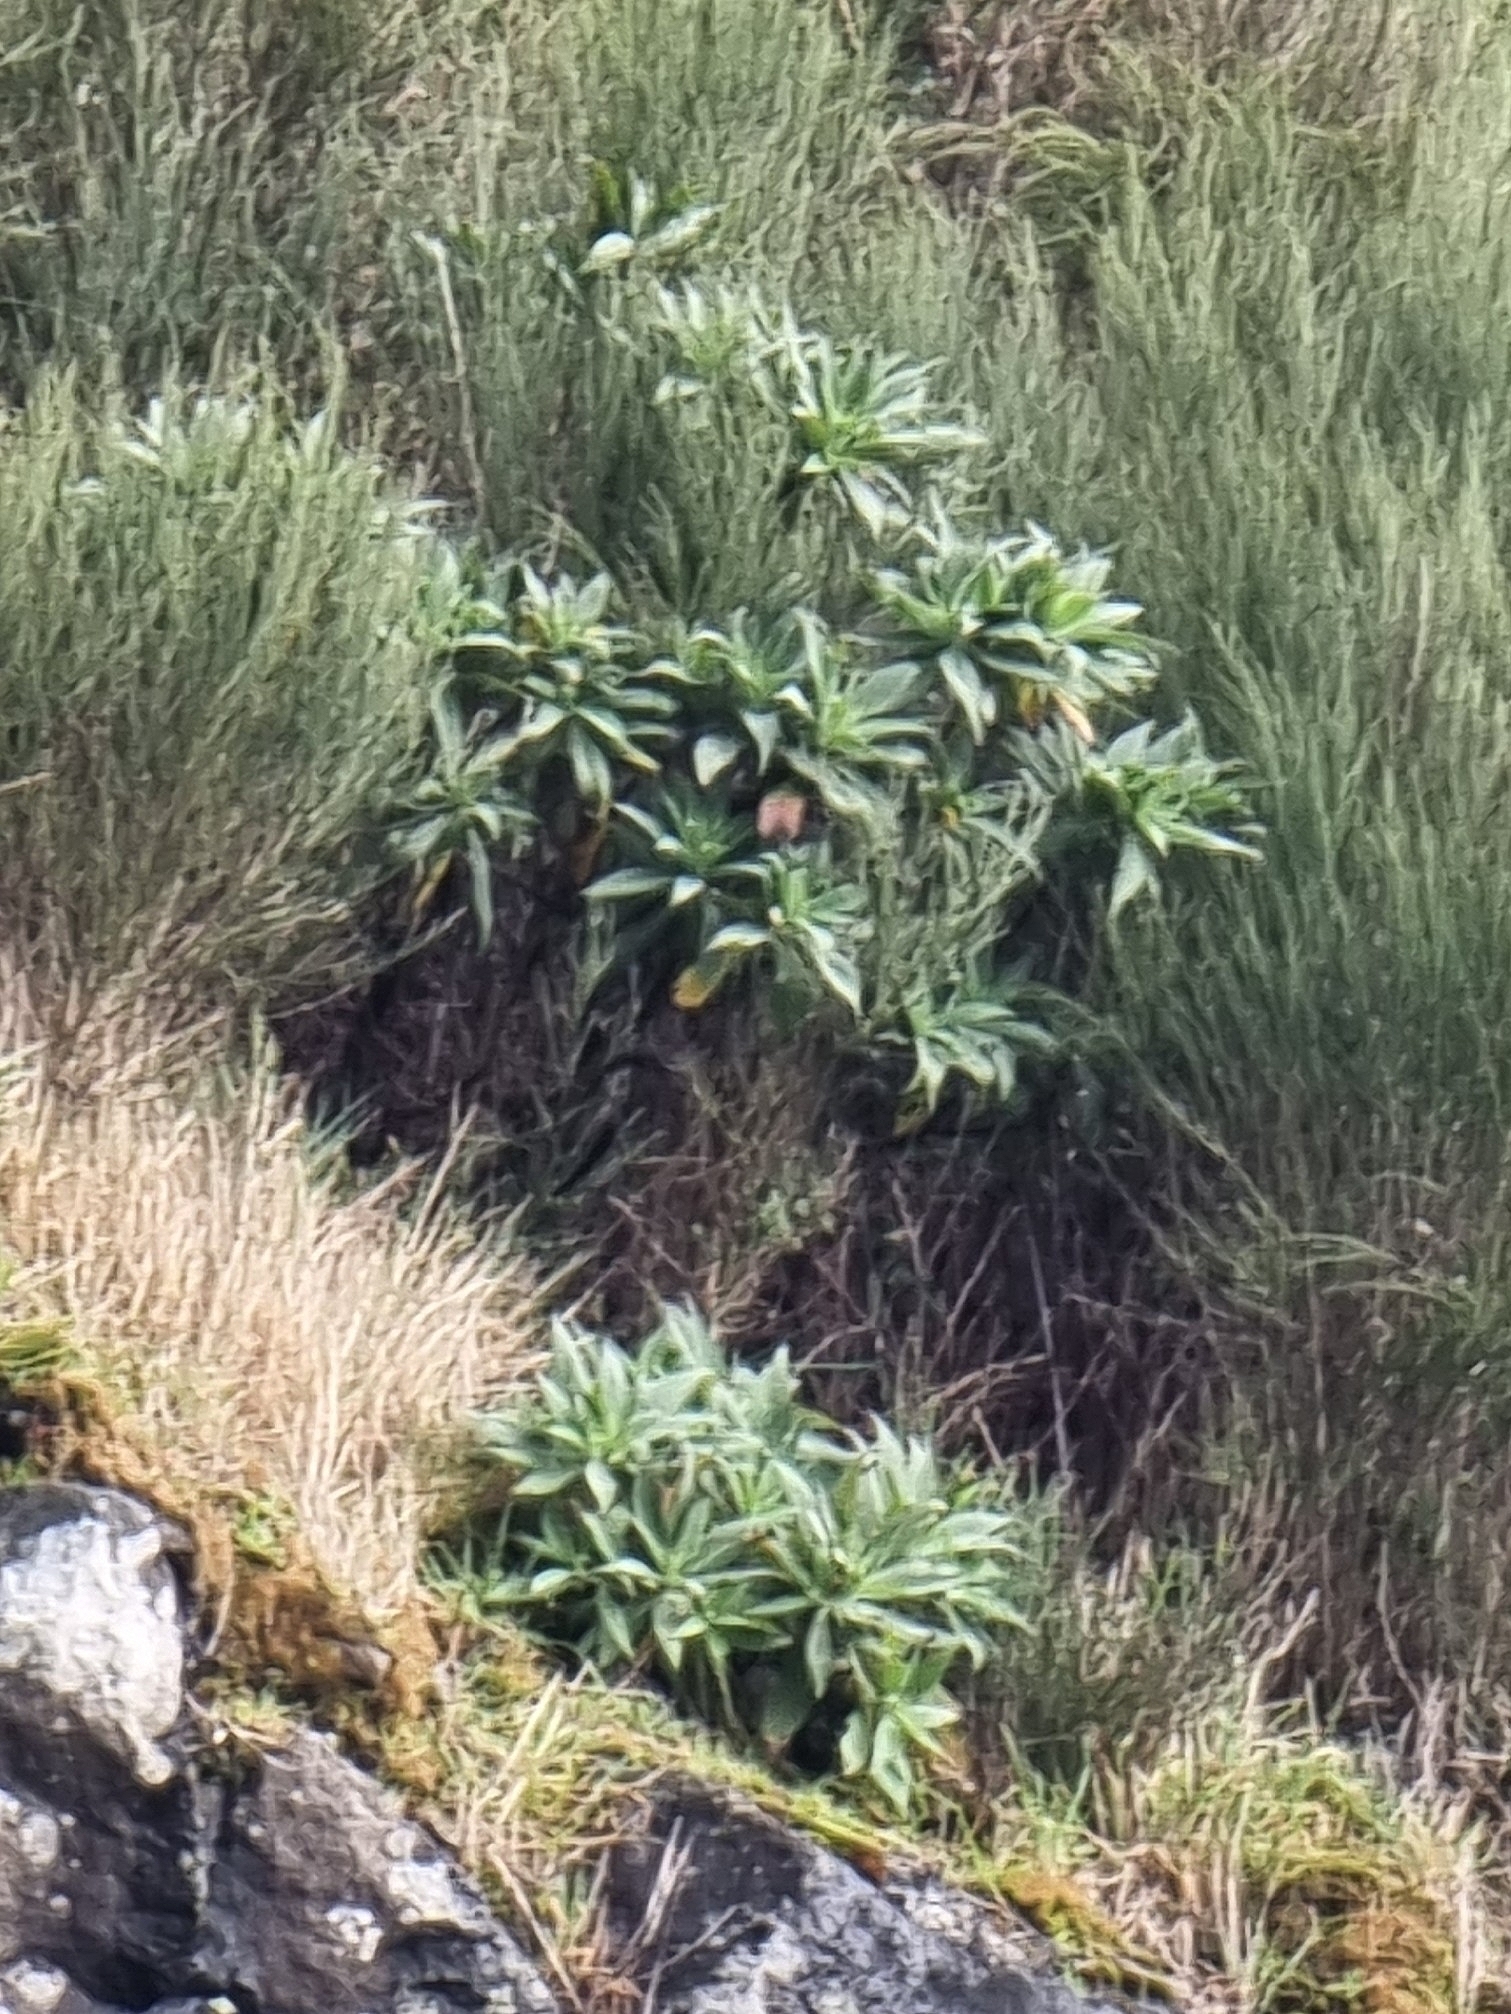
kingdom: Plantae
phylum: Tracheophyta
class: Magnoliopsida
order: Boraginales
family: Boraginaceae
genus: Echium
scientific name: Echium candicans
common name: Pride of madeira
